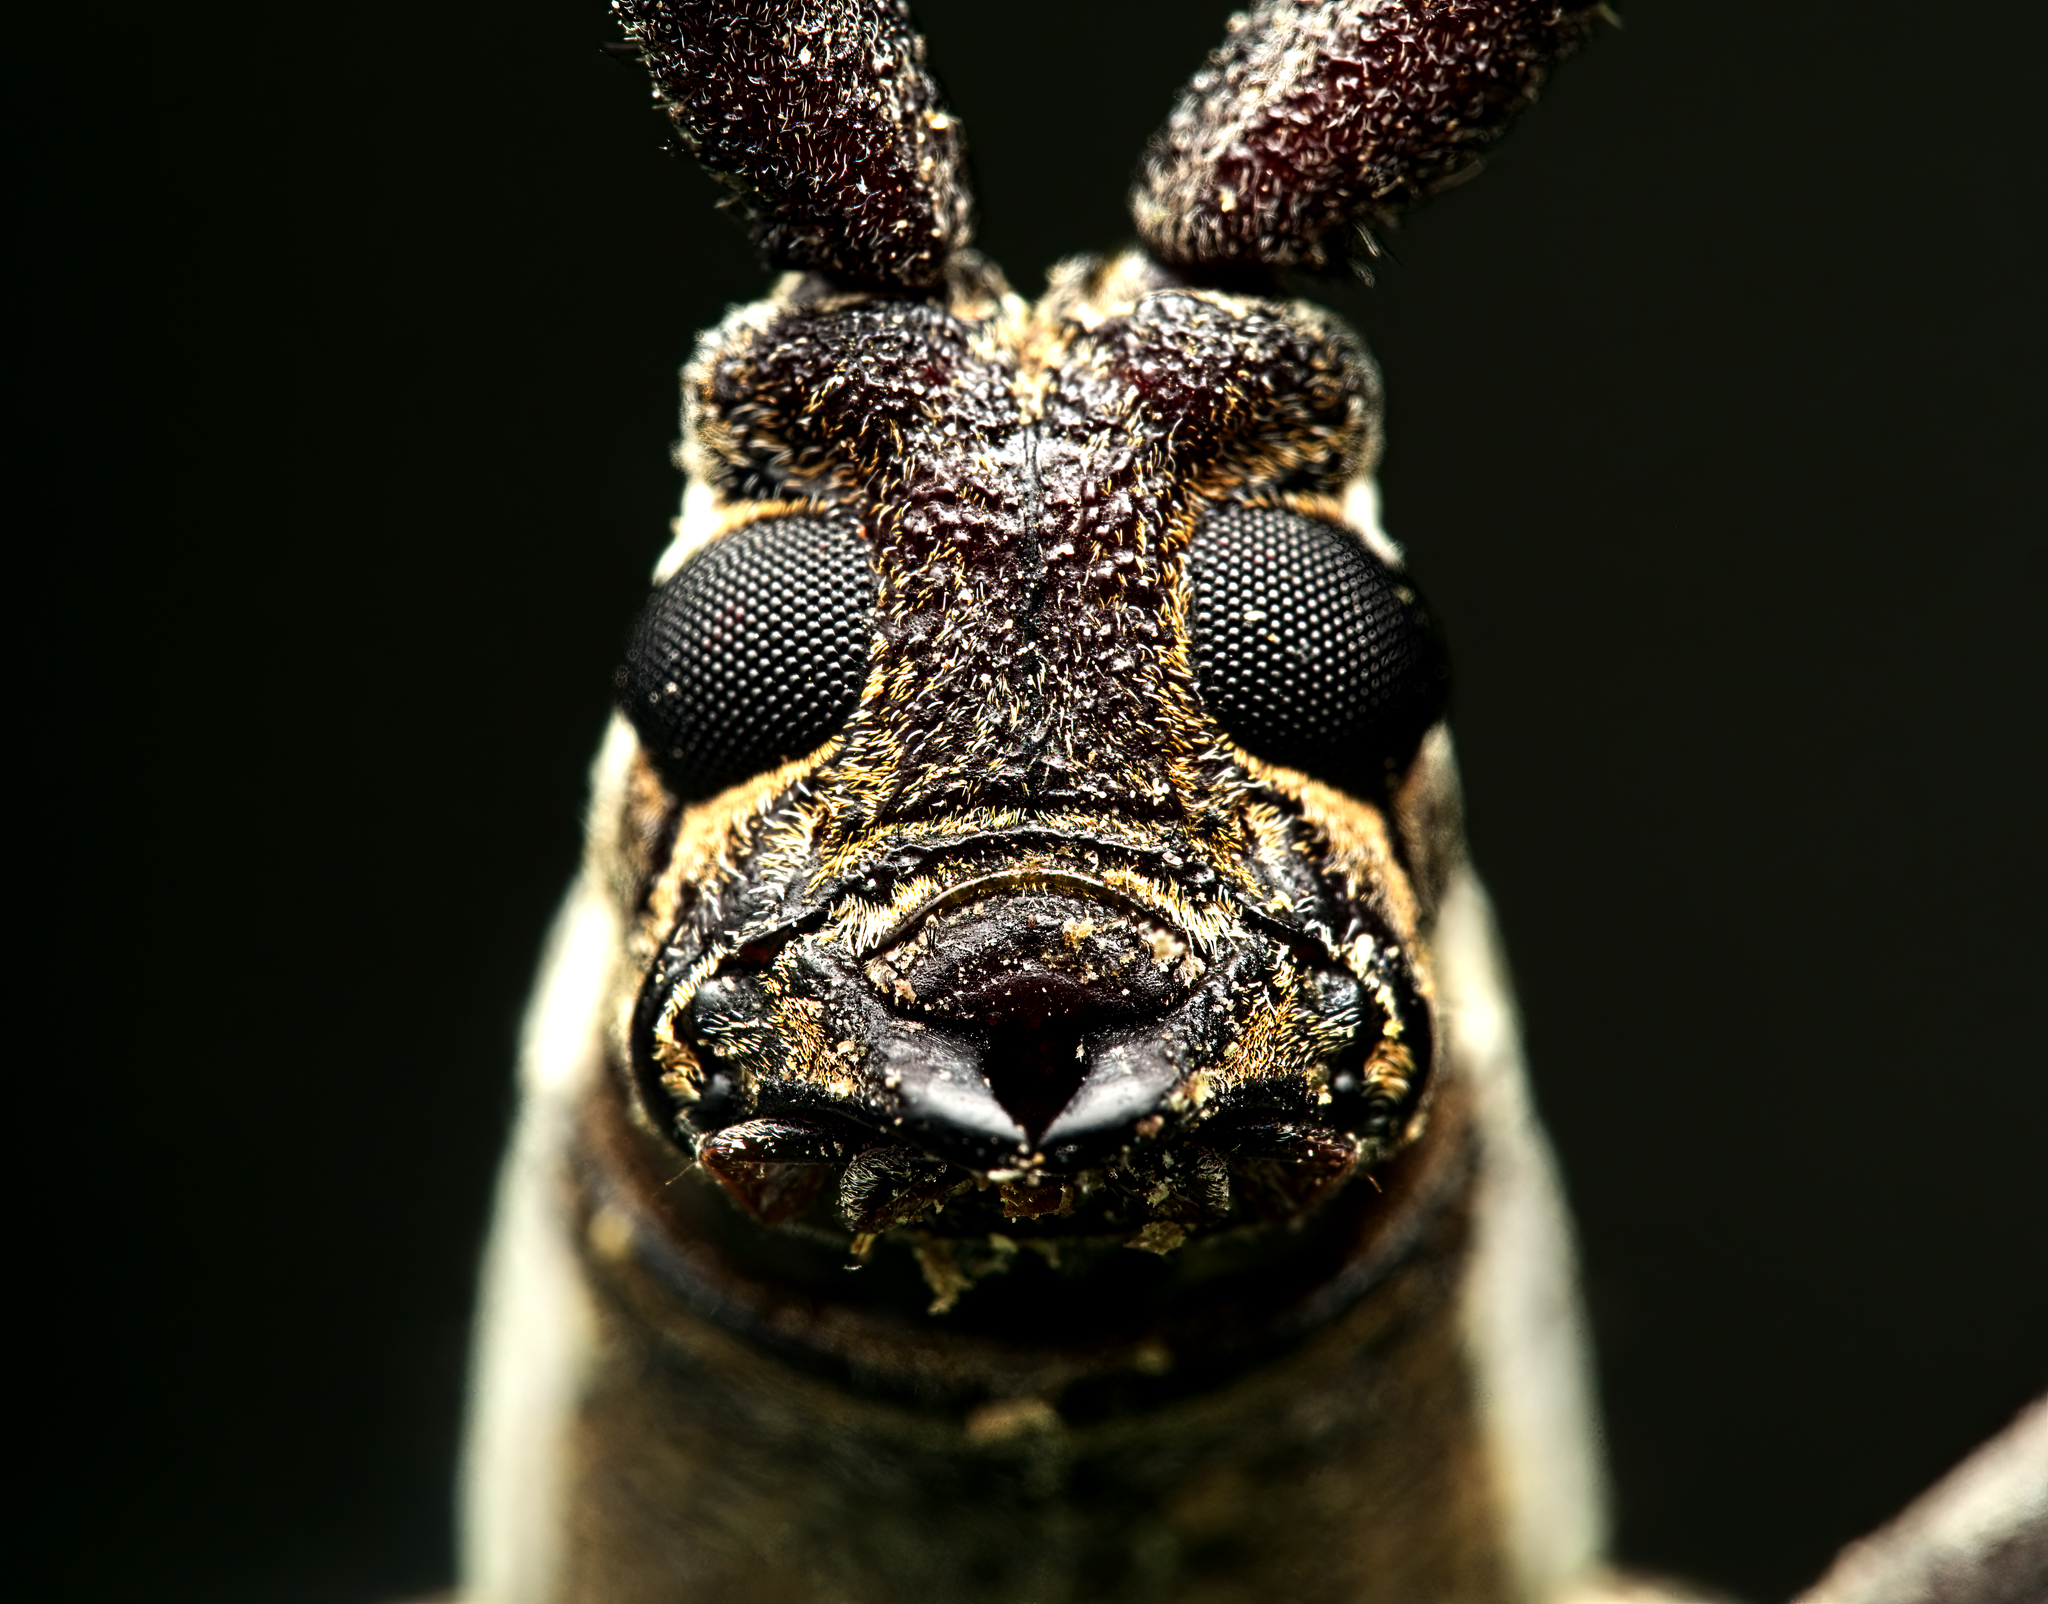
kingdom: Animalia
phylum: Arthropoda
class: Insecta
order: Coleoptera
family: Cerambycidae
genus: Neoptychodes
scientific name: Neoptychodes trilineatus
